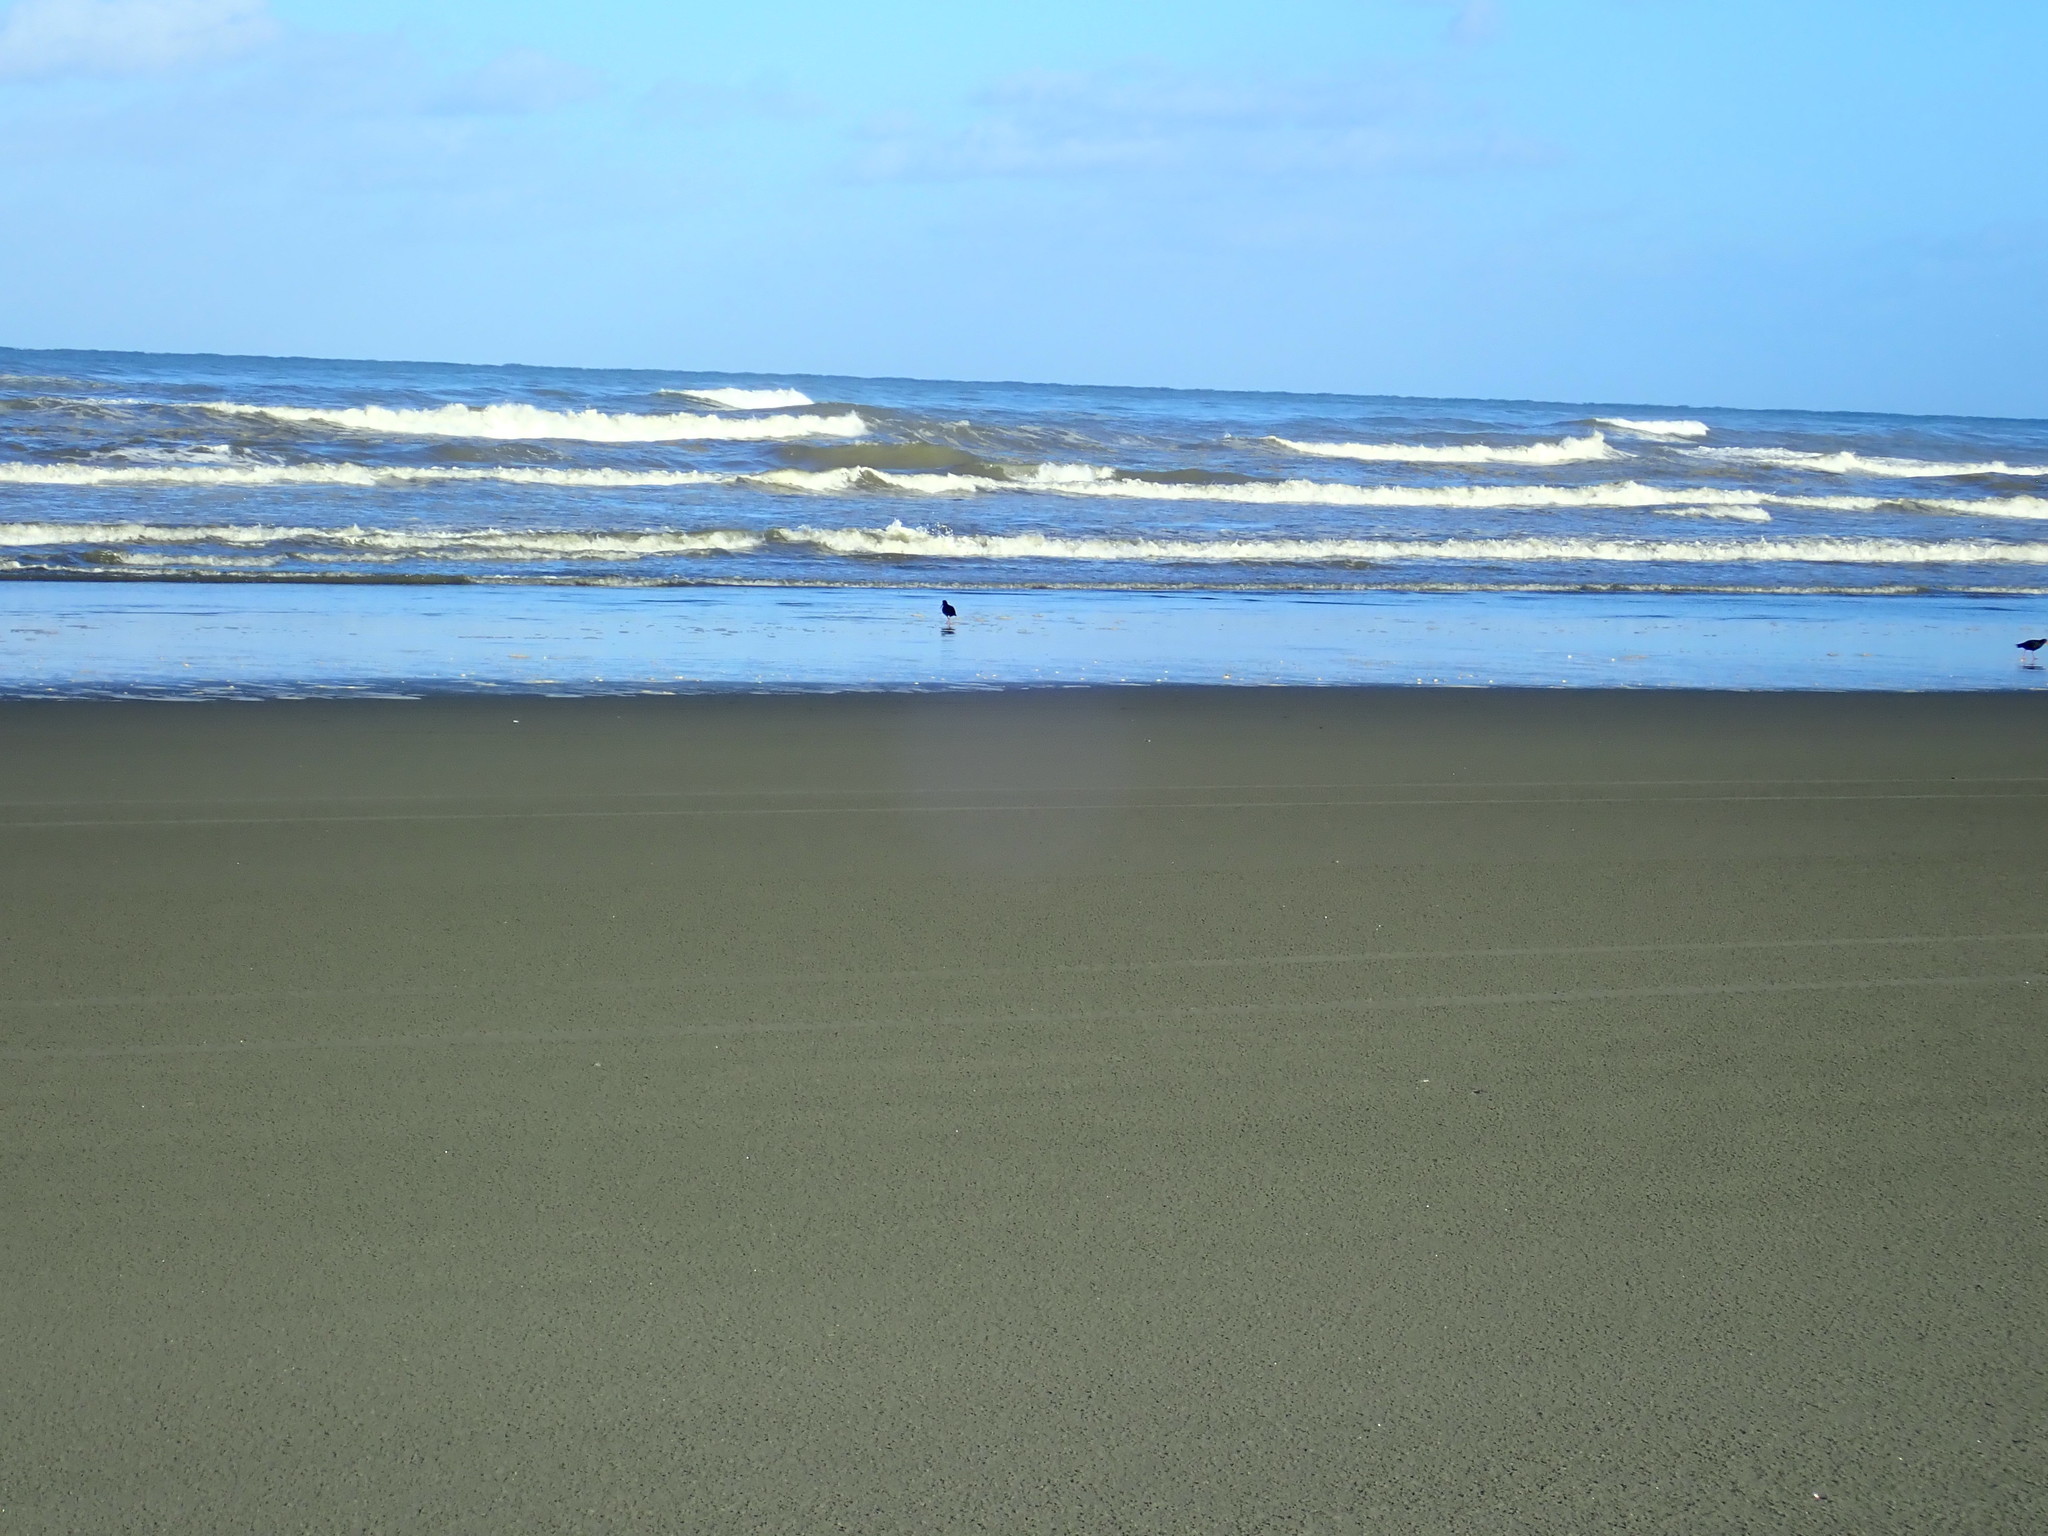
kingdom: Animalia
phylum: Chordata
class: Aves
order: Charadriiformes
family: Haematopodidae
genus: Haematopus
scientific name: Haematopus unicolor
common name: Variable oystercatcher
